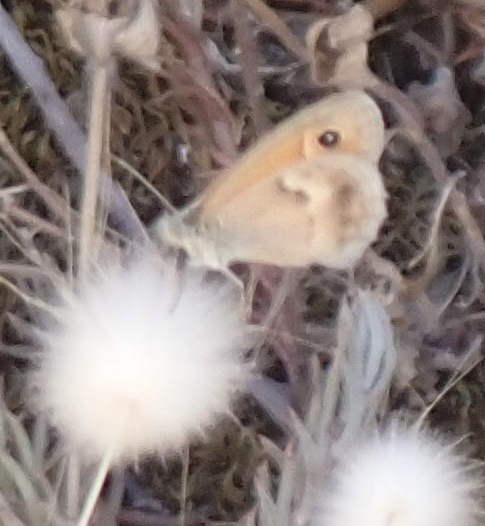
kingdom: Animalia
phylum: Arthropoda
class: Insecta
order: Lepidoptera
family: Nymphalidae
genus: Coenonympha
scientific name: Coenonympha pamphilus
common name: Small heath
